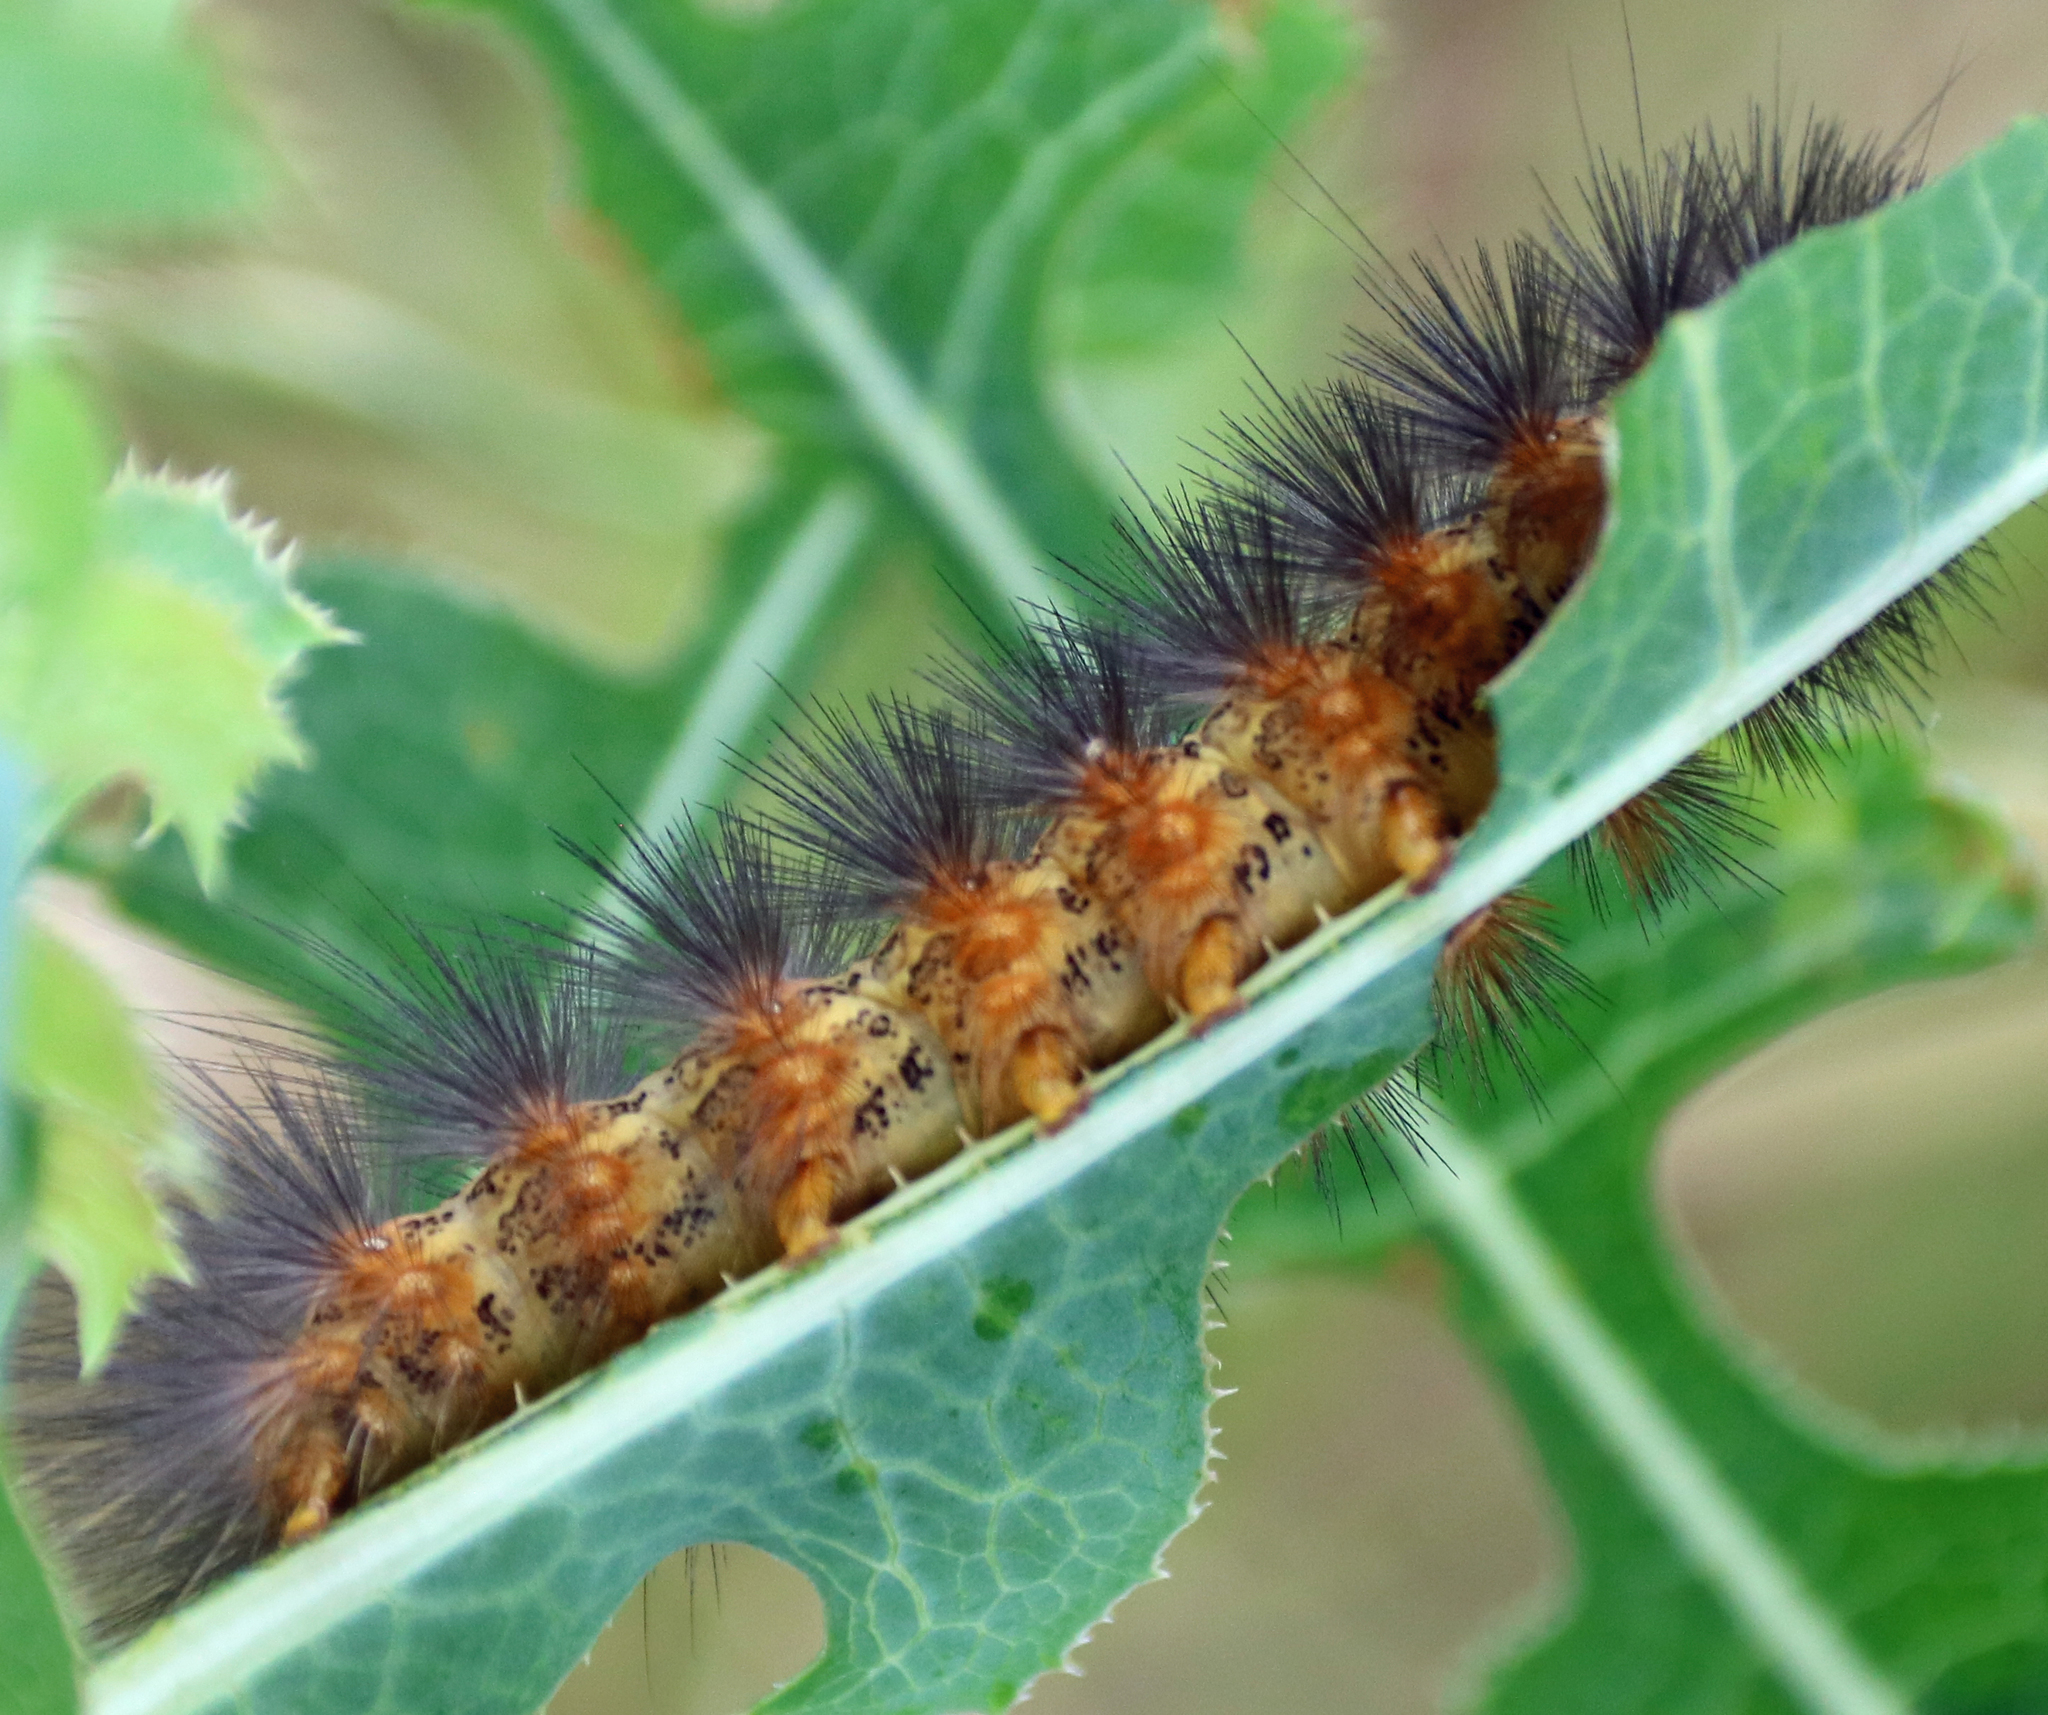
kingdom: Animalia
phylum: Arthropoda
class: Insecta
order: Lepidoptera
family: Erebidae
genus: Estigmene
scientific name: Estigmene acrea
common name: Salt marsh moth
